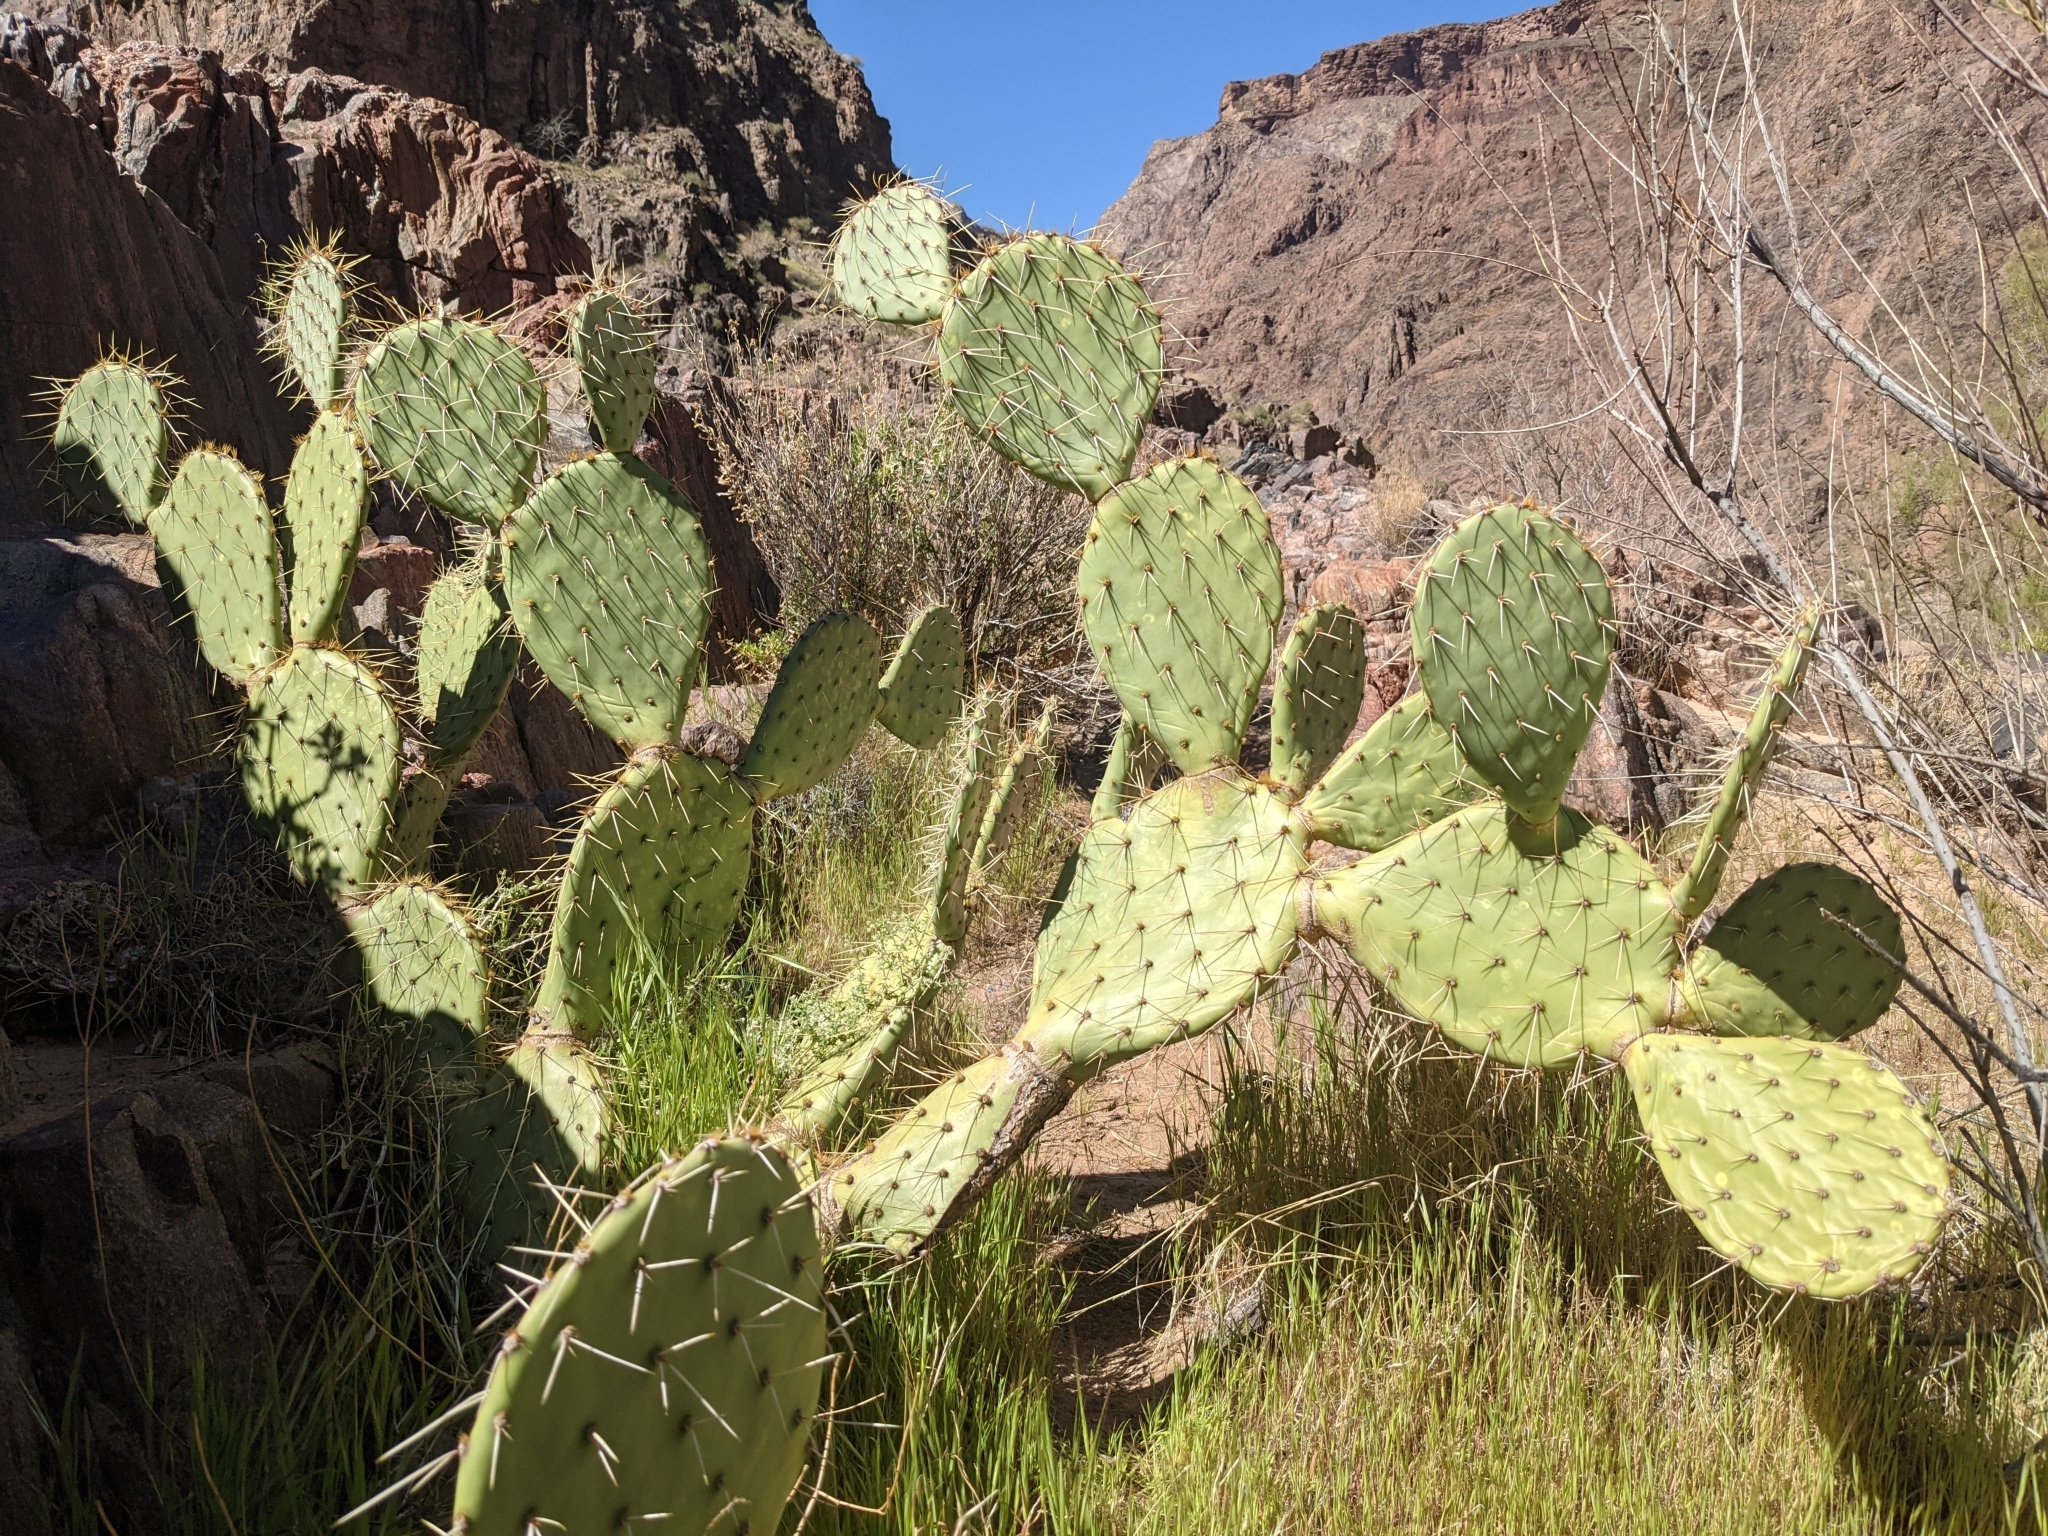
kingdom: Plantae
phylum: Tracheophyta
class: Magnoliopsida
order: Caryophyllales
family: Cactaceae
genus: Opuntia
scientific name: Opuntia engelmannii
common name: Cactus-apple
